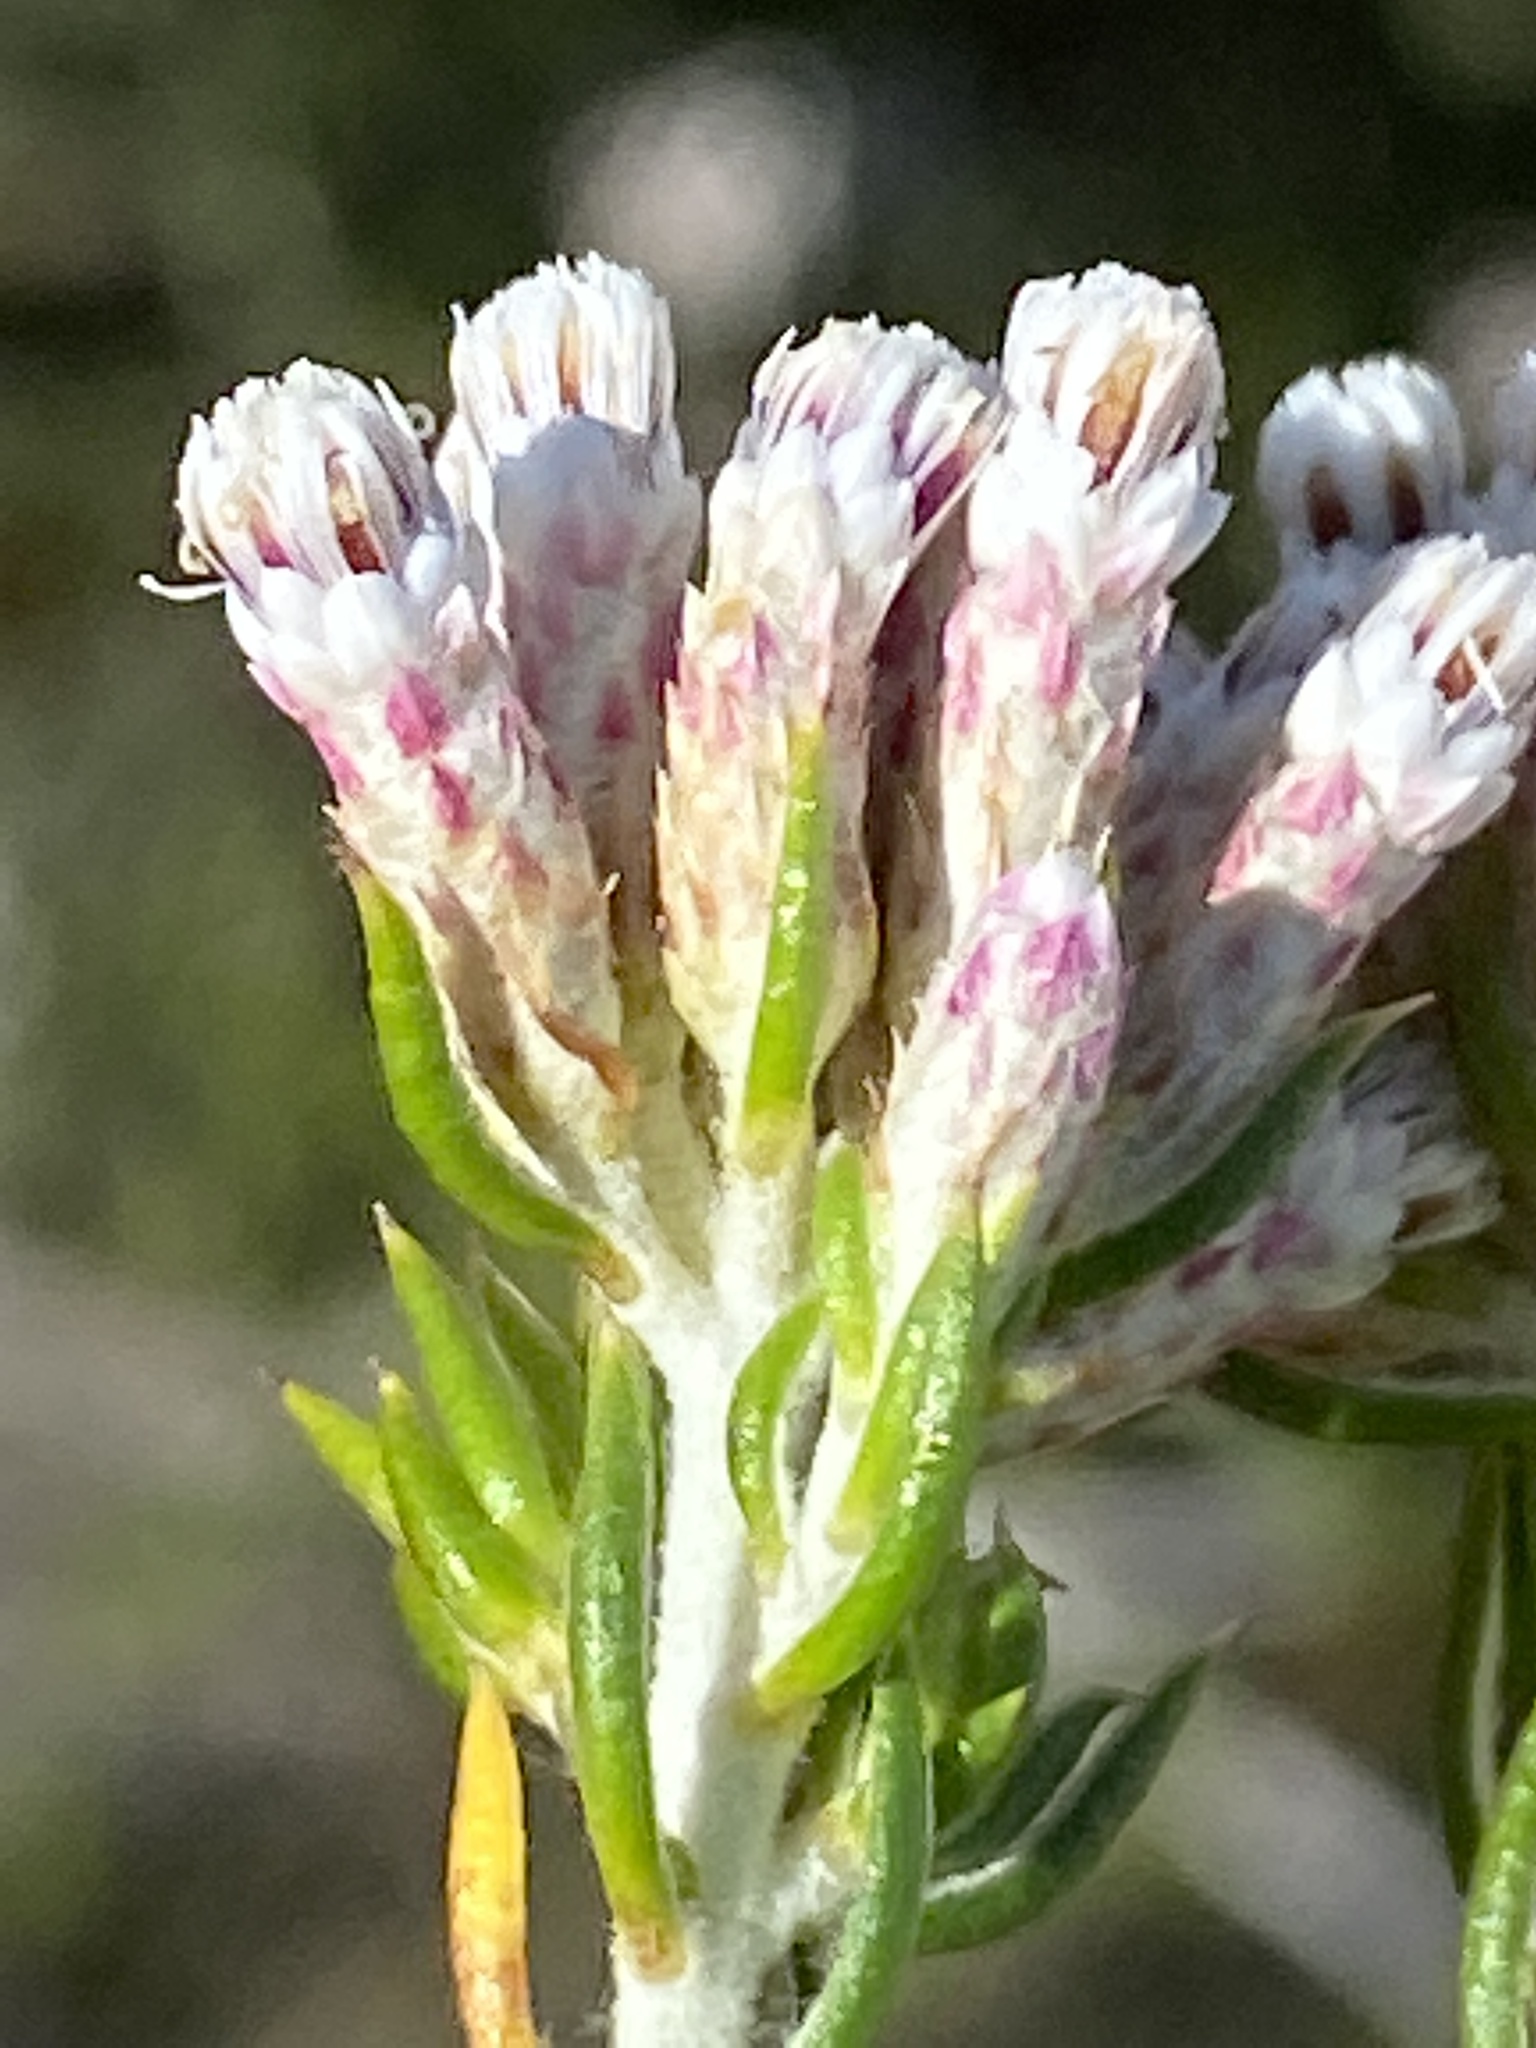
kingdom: Plantae
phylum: Tracheophyta
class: Magnoliopsida
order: Asterales
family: Asteraceae
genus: Metalasia
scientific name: Metalasia pallida
